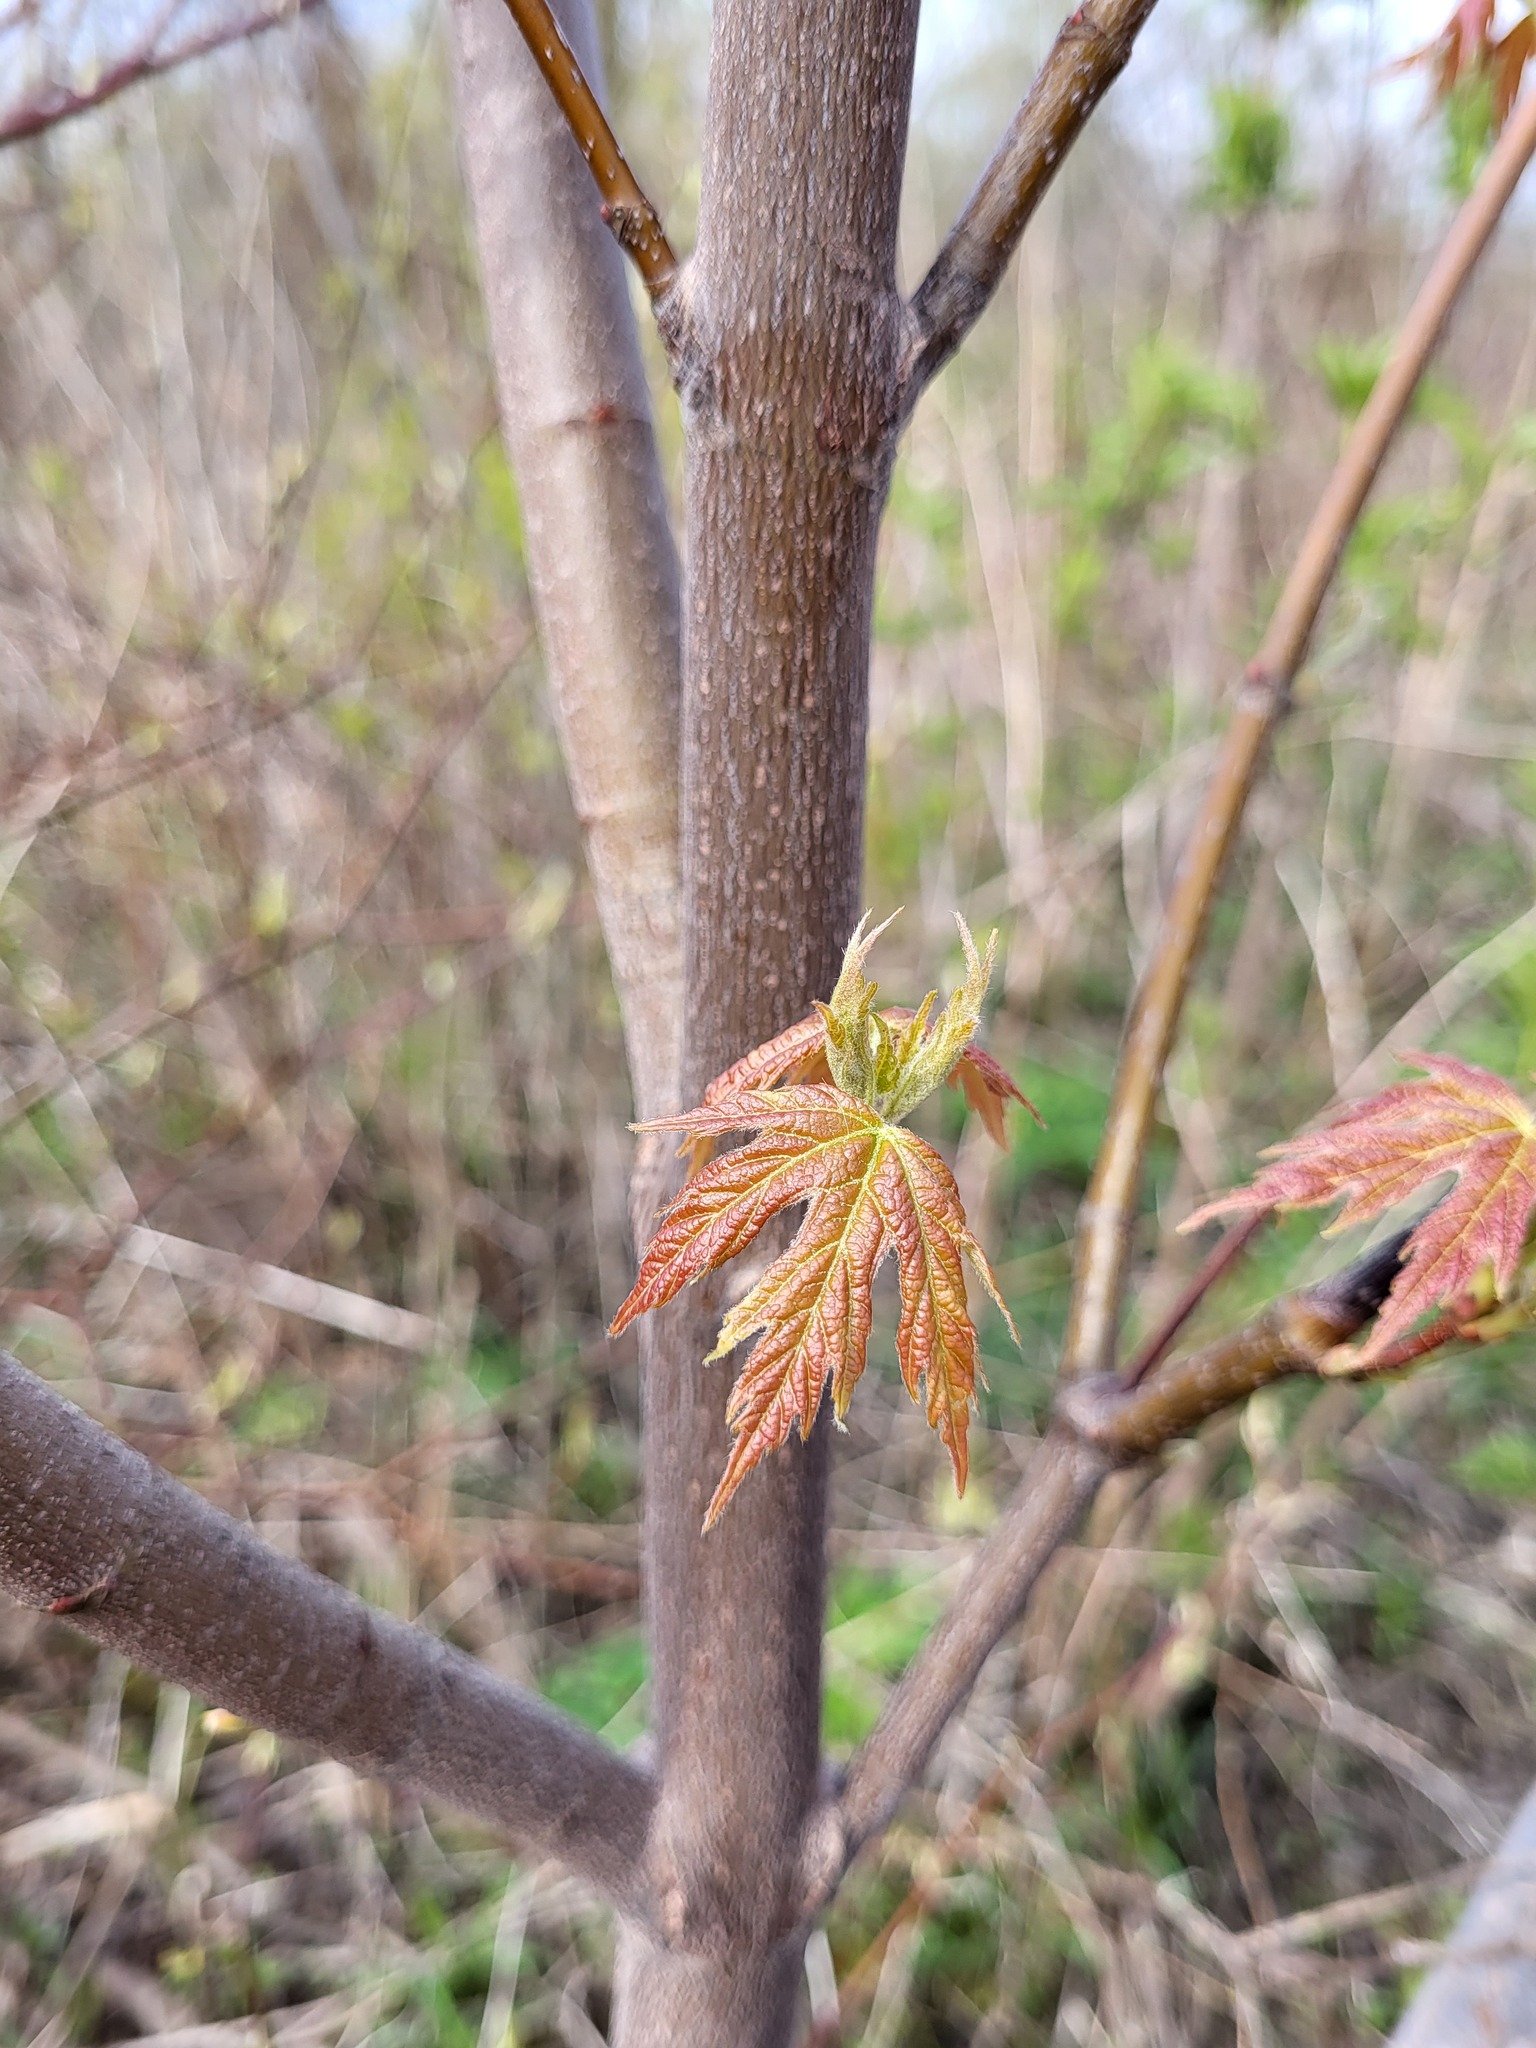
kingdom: Plantae
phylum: Tracheophyta
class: Magnoliopsida
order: Sapindales
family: Sapindaceae
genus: Acer
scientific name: Acer saccharinum
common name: Silver maple
